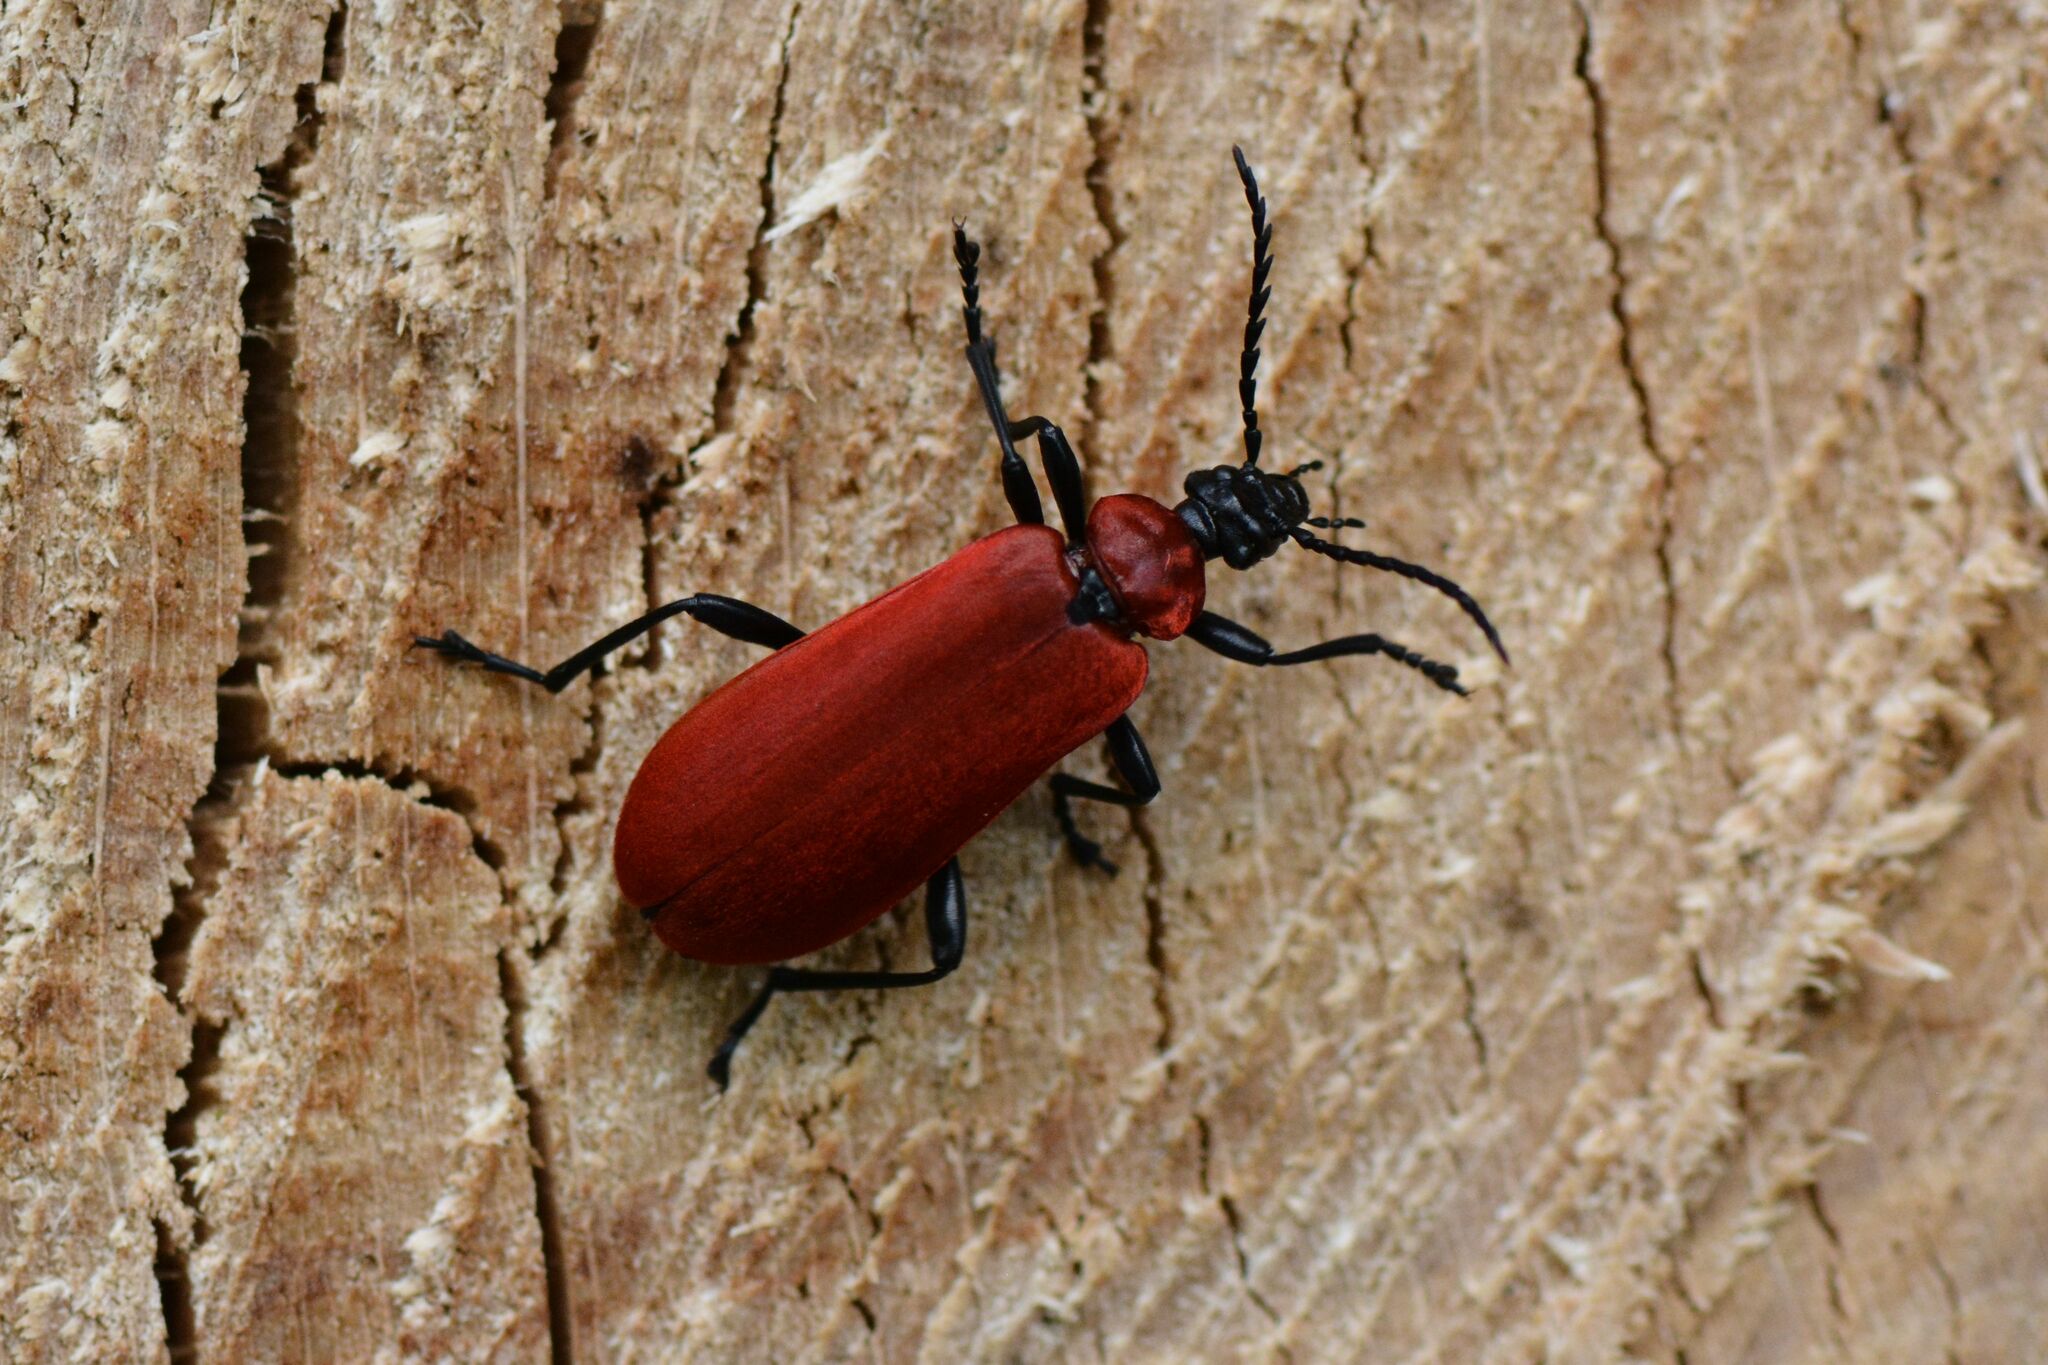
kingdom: Animalia
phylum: Arthropoda
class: Insecta
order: Coleoptera
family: Pyrochroidae
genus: Pyrochroa
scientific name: Pyrochroa coccinea
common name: Black-headed cardinal beetle
